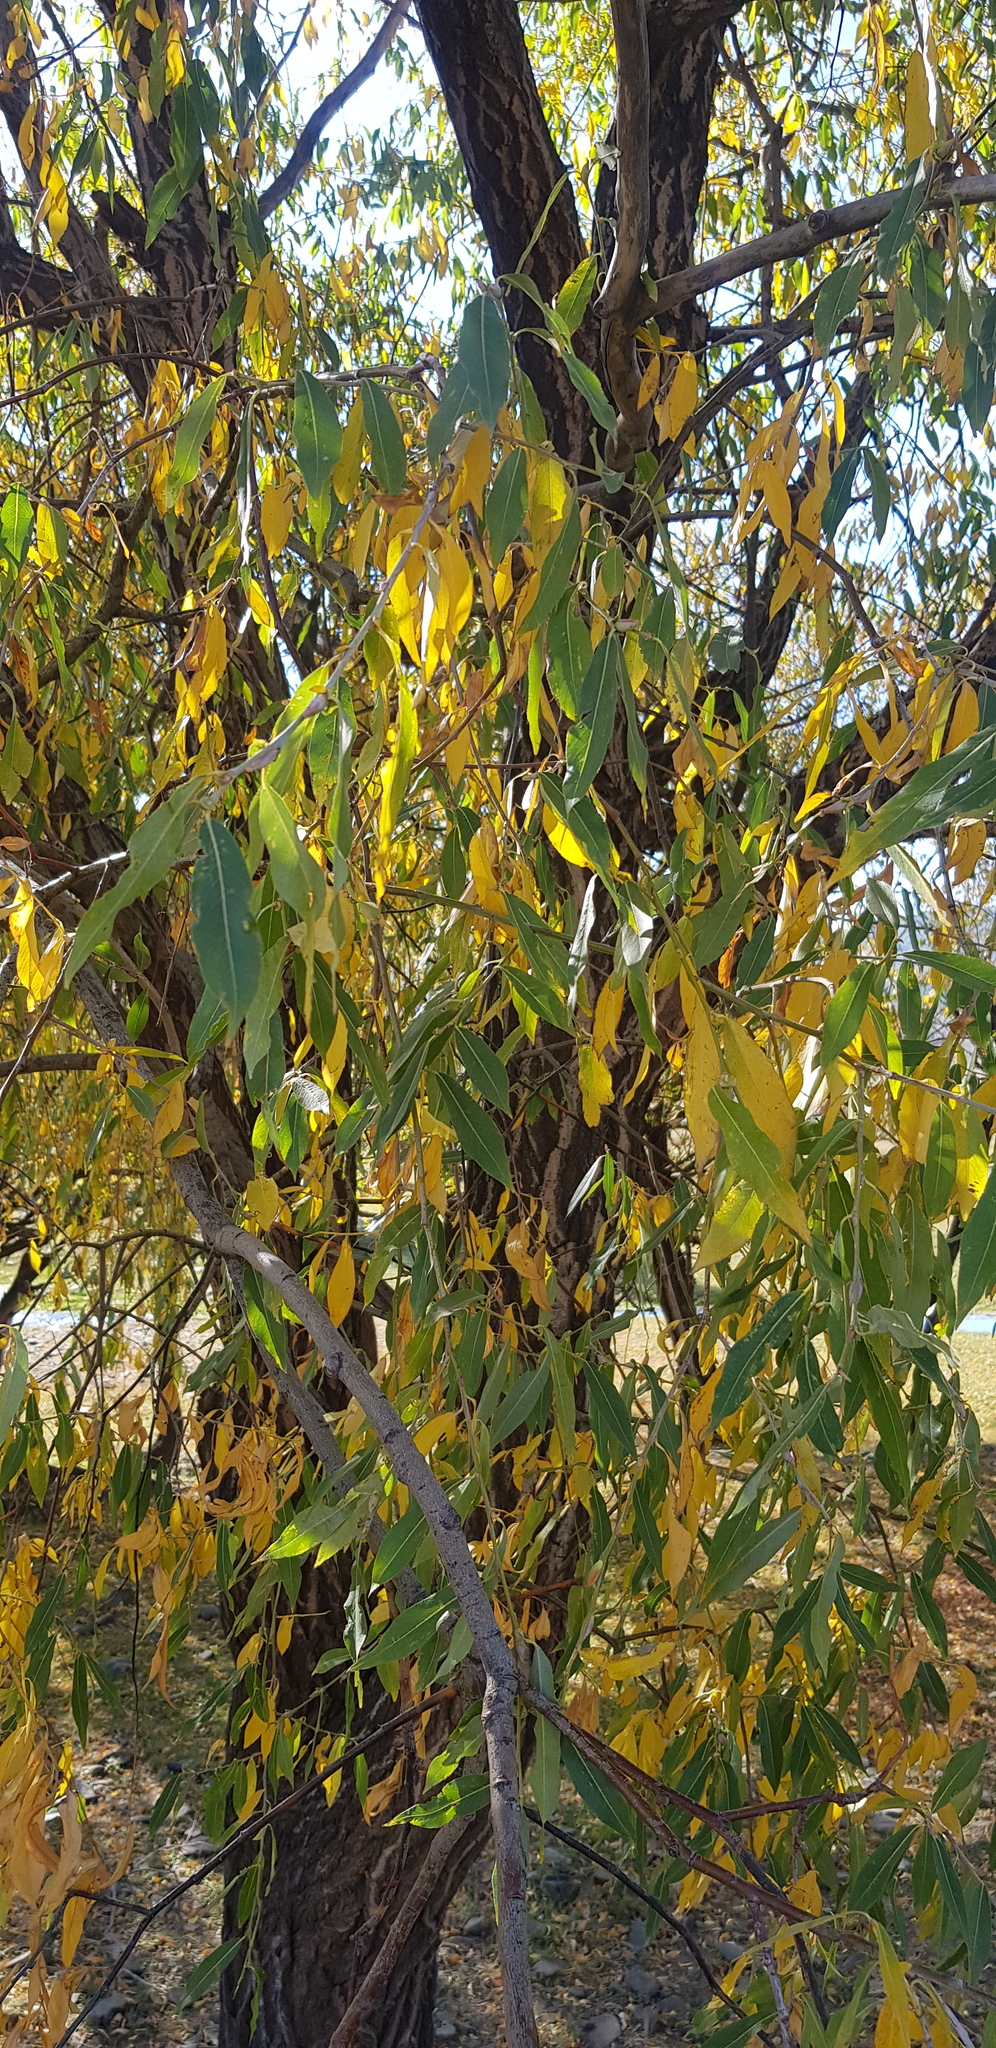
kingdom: Plantae
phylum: Tracheophyta
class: Magnoliopsida
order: Malpighiales
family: Salicaceae
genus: Salix
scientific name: Salix udensis
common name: Sachalin willow
